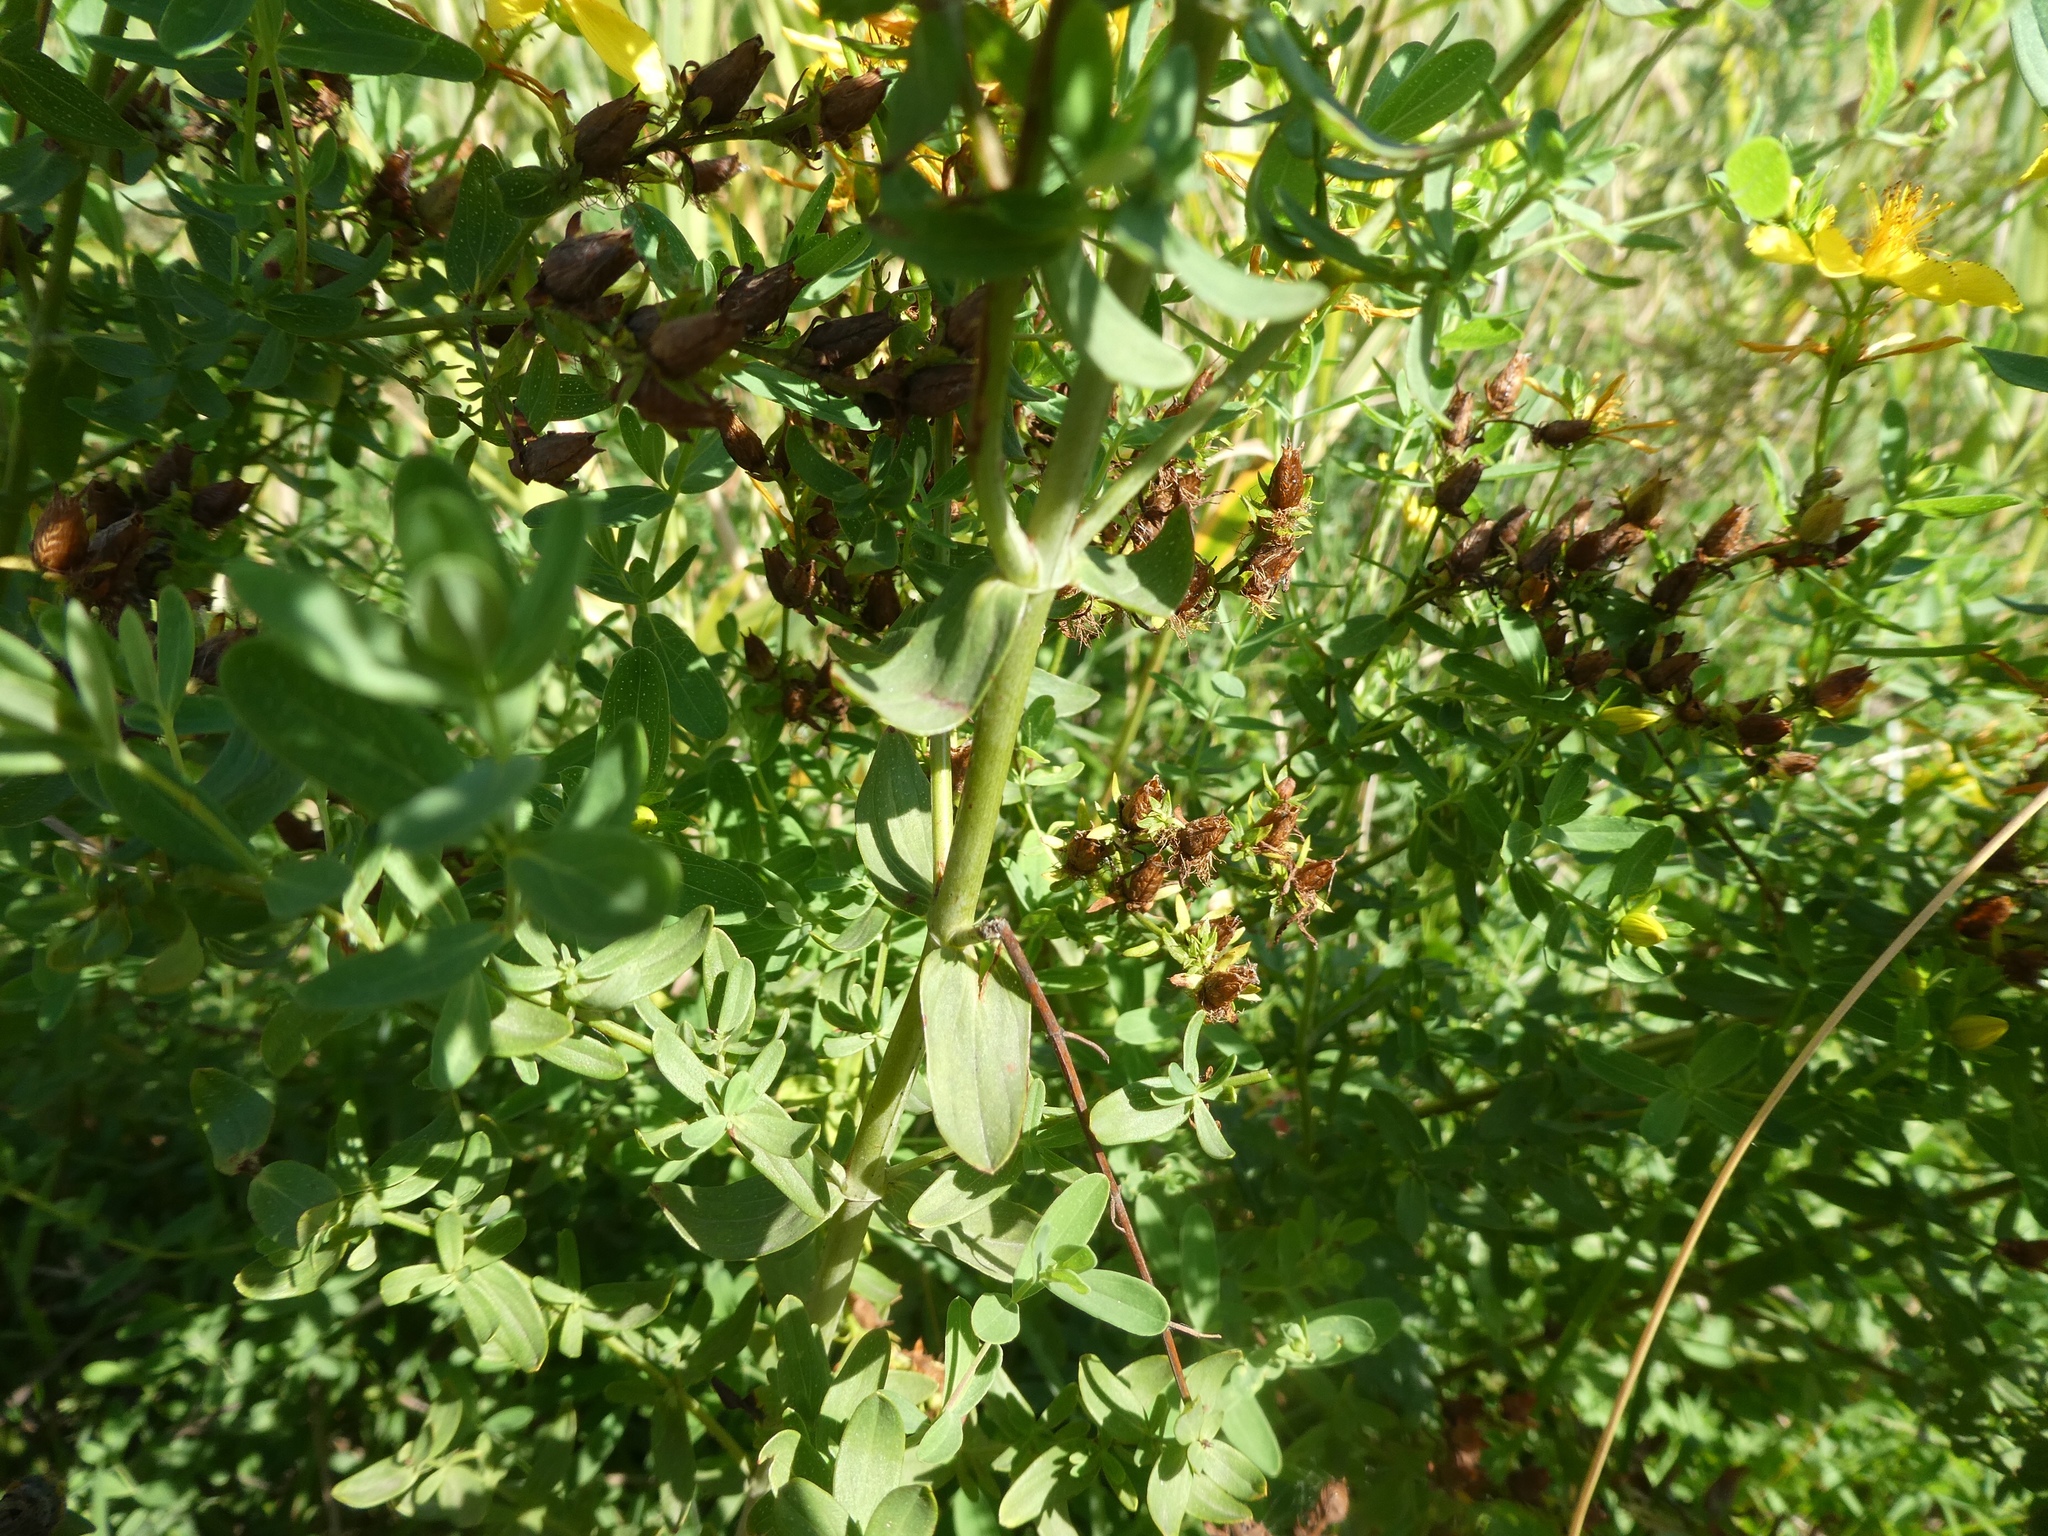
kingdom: Plantae
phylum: Tracheophyta
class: Magnoliopsida
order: Malpighiales
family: Hypericaceae
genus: Hypericum
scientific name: Hypericum perforatum
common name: Common st. johnswort
